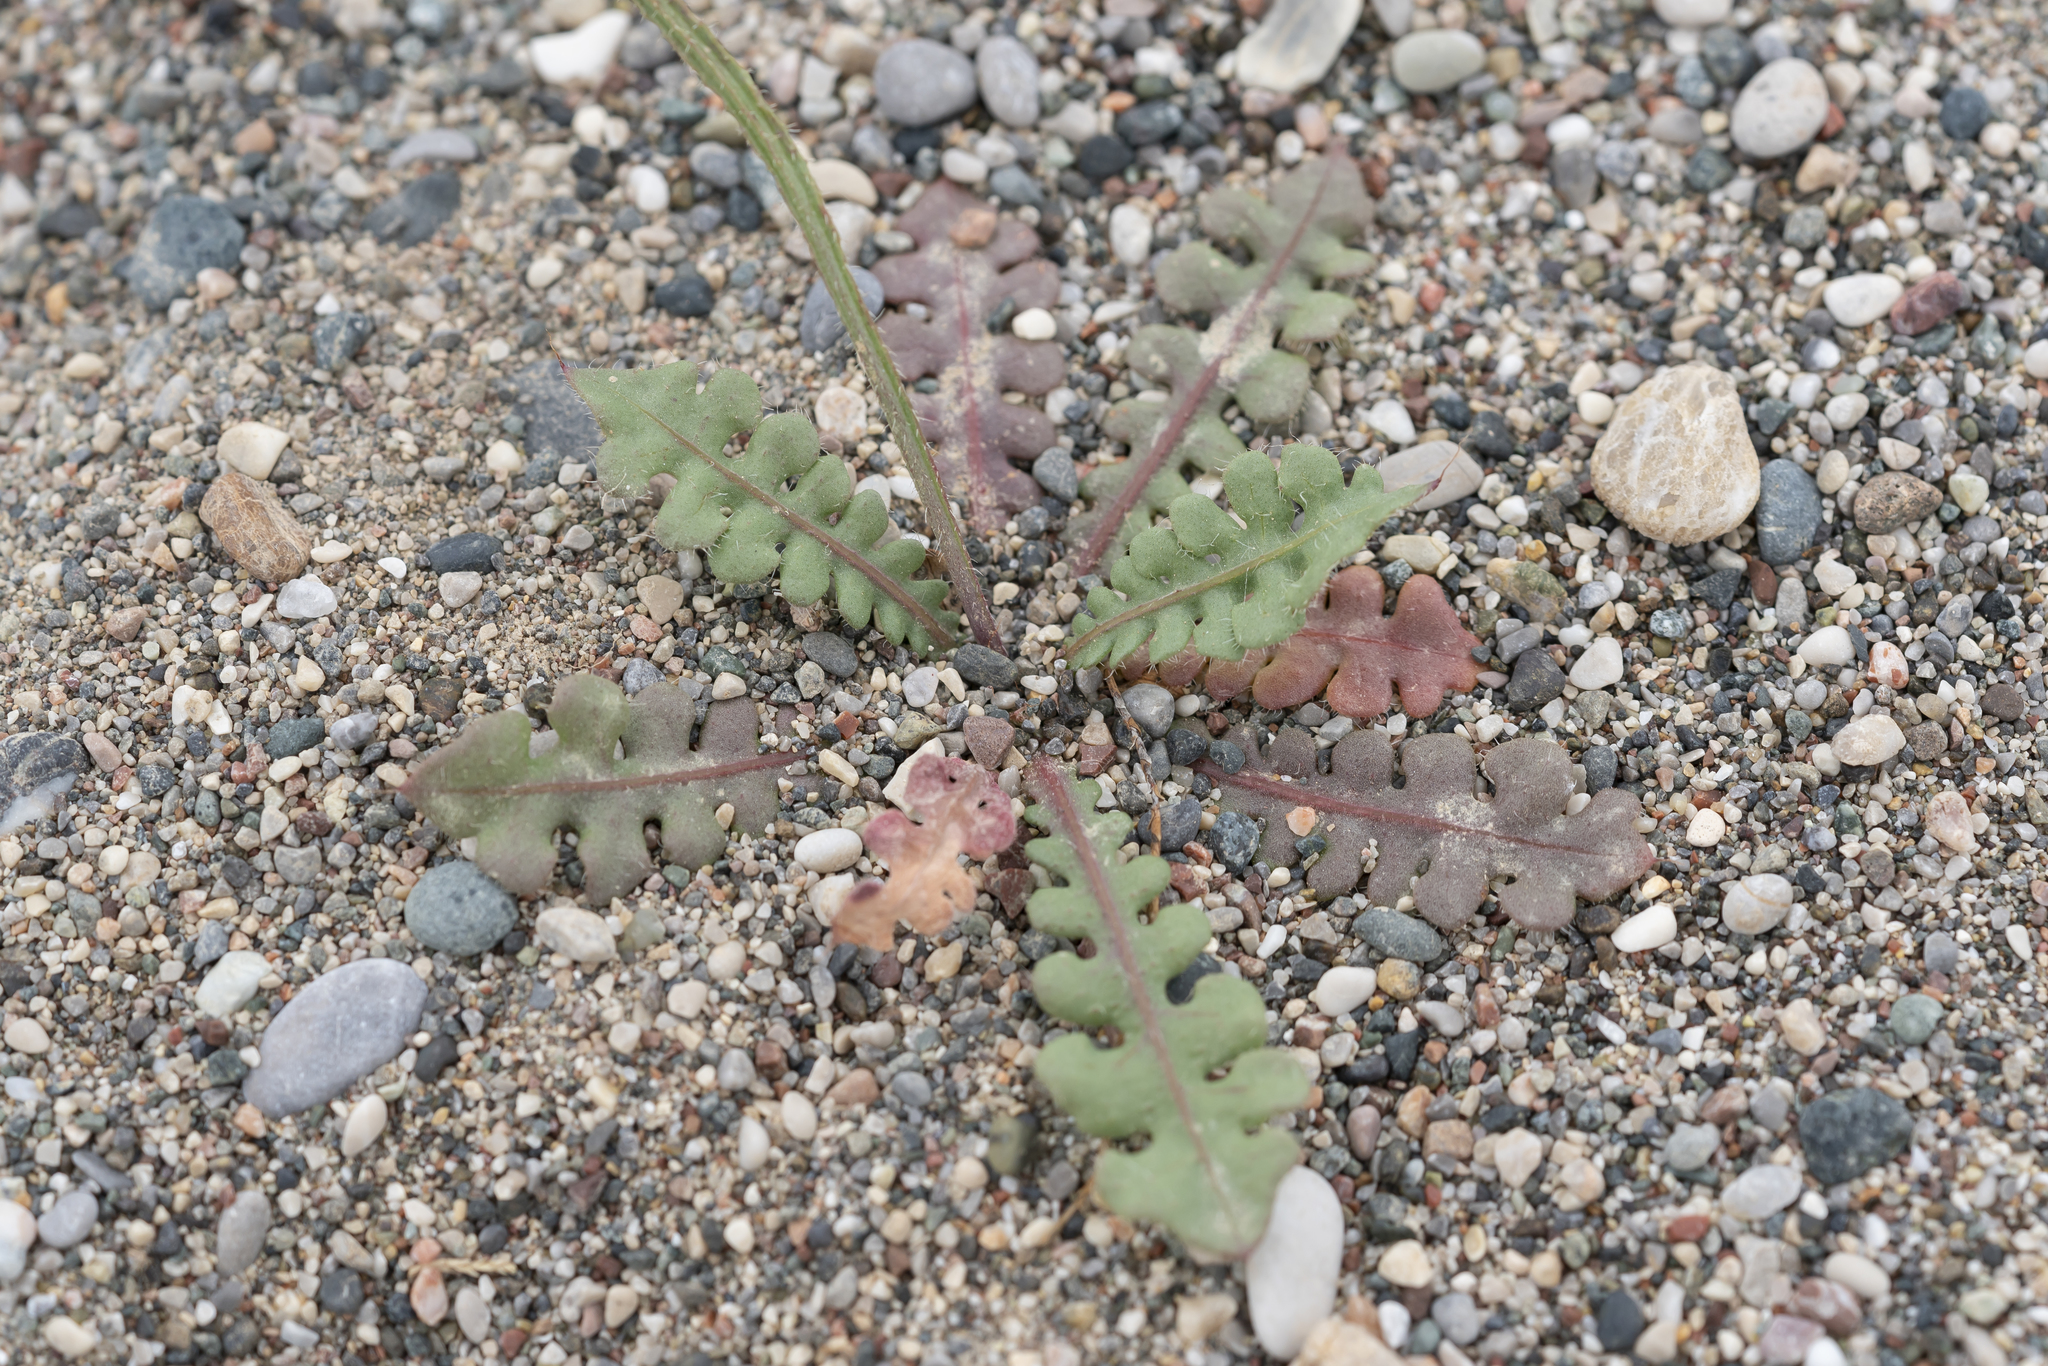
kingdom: Plantae
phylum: Tracheophyta
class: Magnoliopsida
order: Caryophyllales
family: Plumbaginaceae
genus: Limonium
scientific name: Limonium sinuatum
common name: Statice
